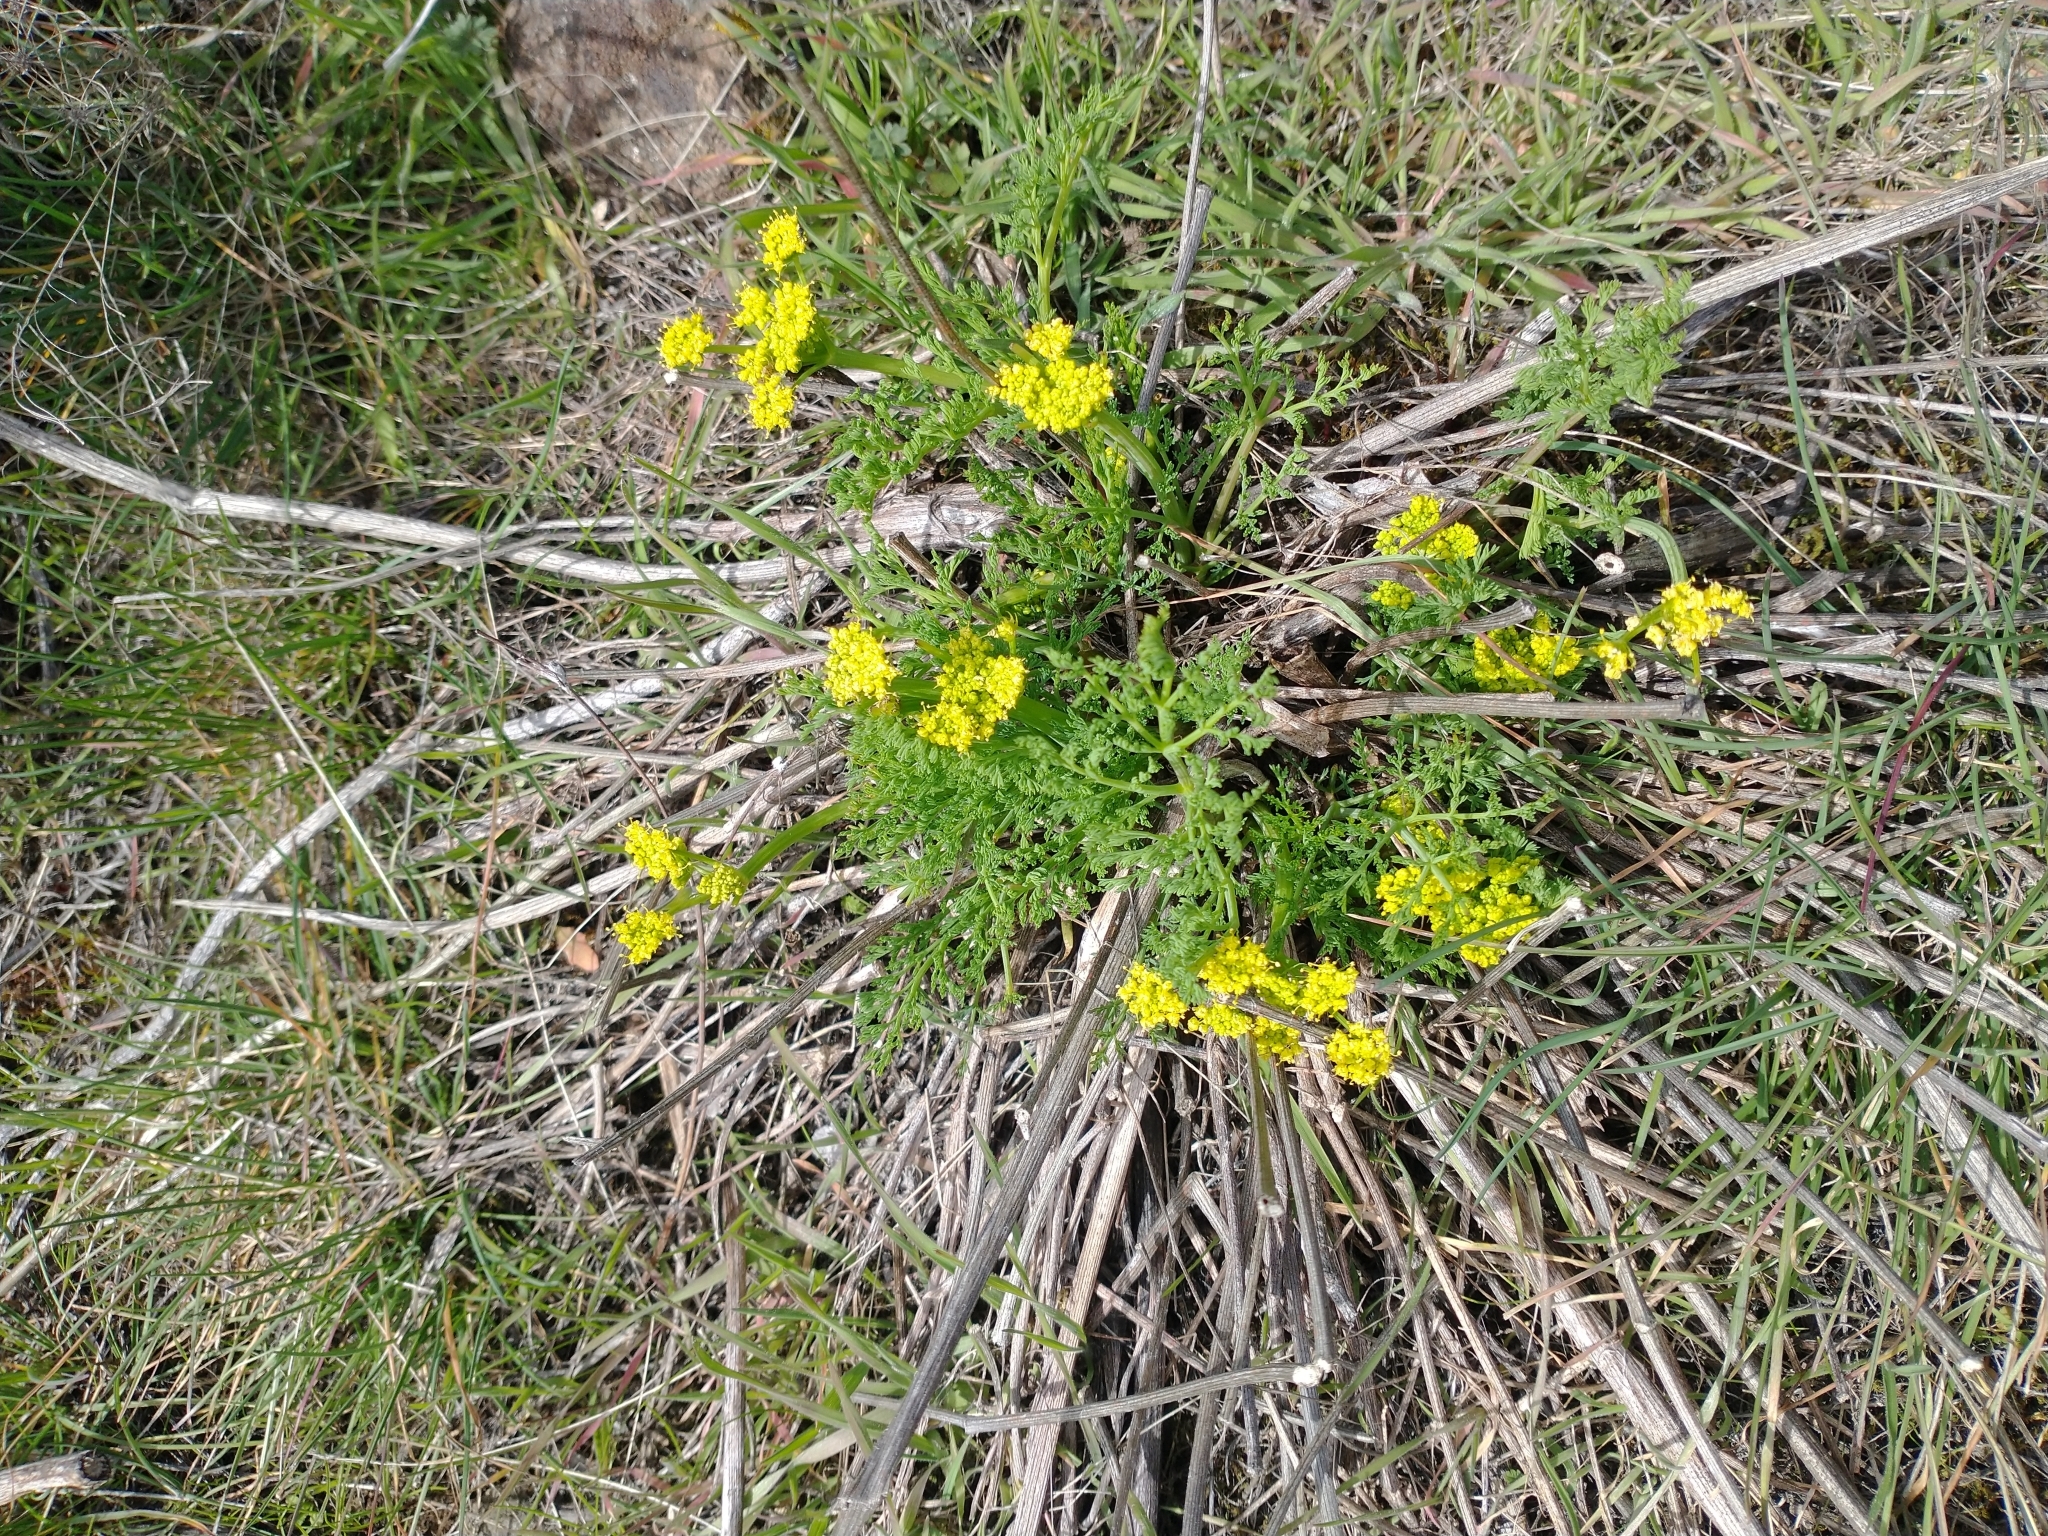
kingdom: Plantae
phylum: Tracheophyta
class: Magnoliopsida
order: Apiales
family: Apiaceae
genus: Lomatium
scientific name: Lomatium papilioniferum
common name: Butterfly lomatium
